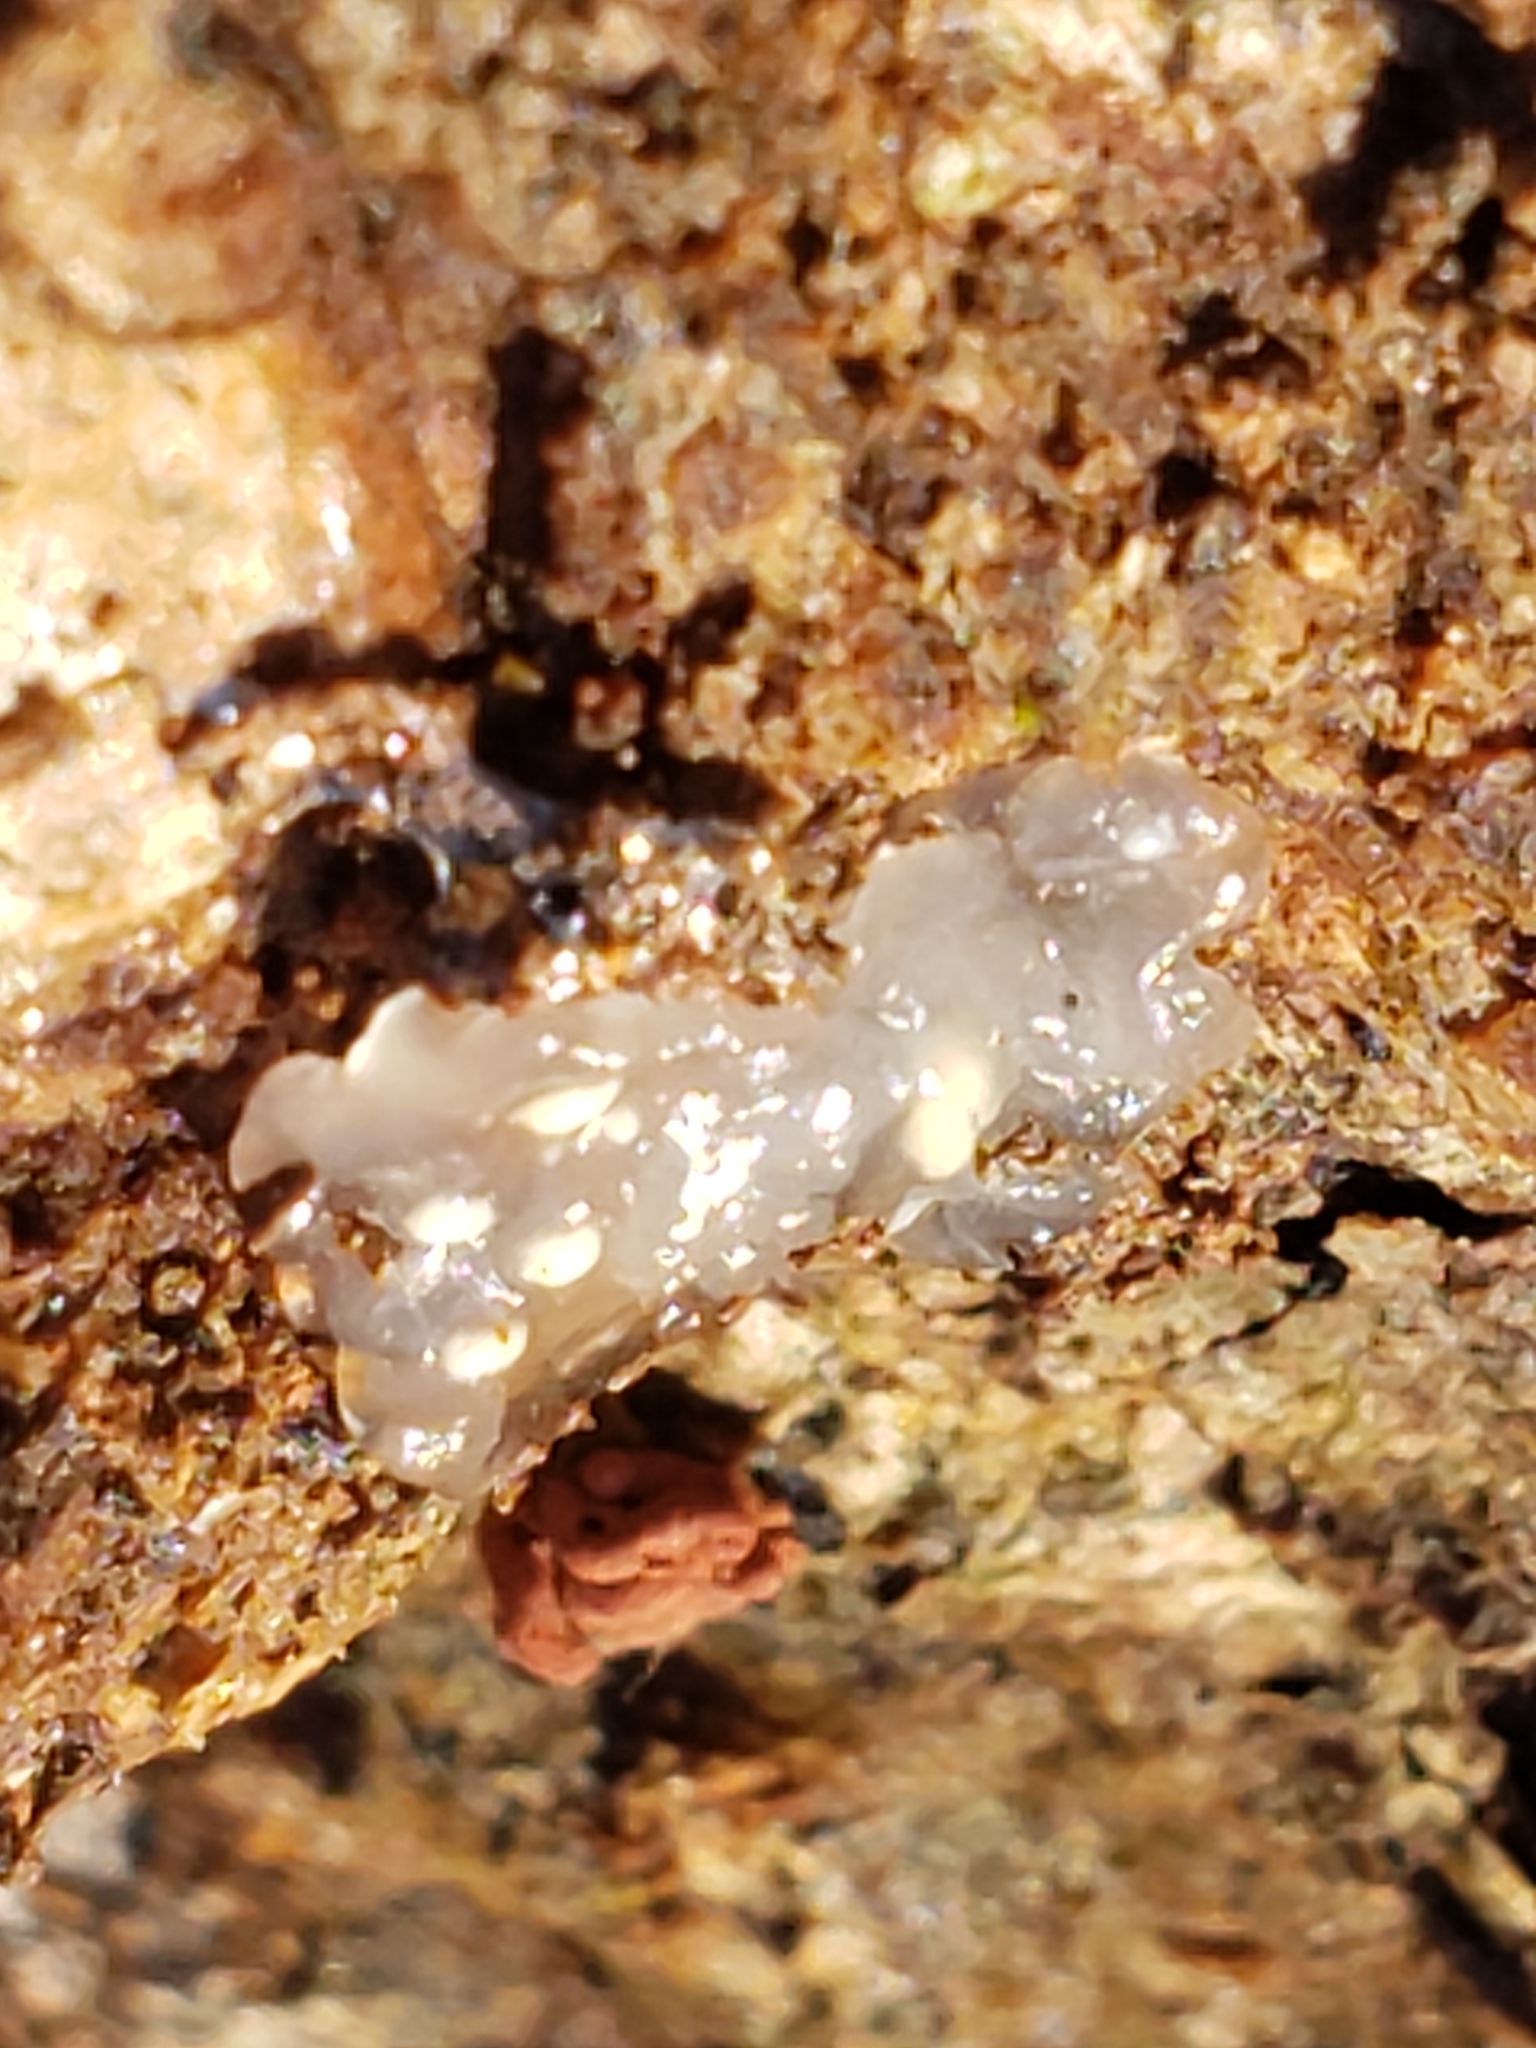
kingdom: Fungi
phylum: Basidiomycota
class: Agaricomycetes
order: Auriculariales
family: Hyaloriaceae
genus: Myxarium
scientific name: Myxarium nucleatum
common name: Crystal brain fungus
